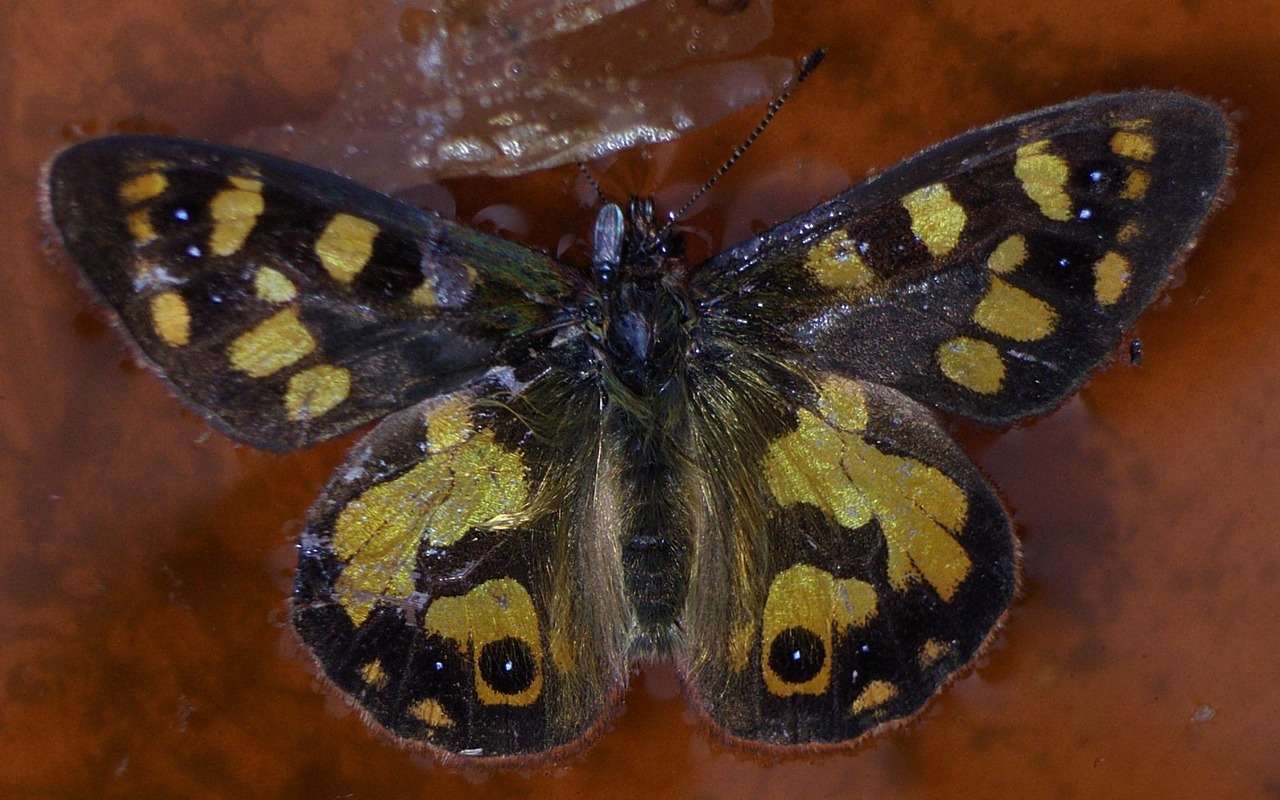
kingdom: Animalia
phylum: Arthropoda
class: Insecta
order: Lepidoptera
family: Nymphalidae
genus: Argynnina
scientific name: Argynnina cyrila
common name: Cyril's brown
